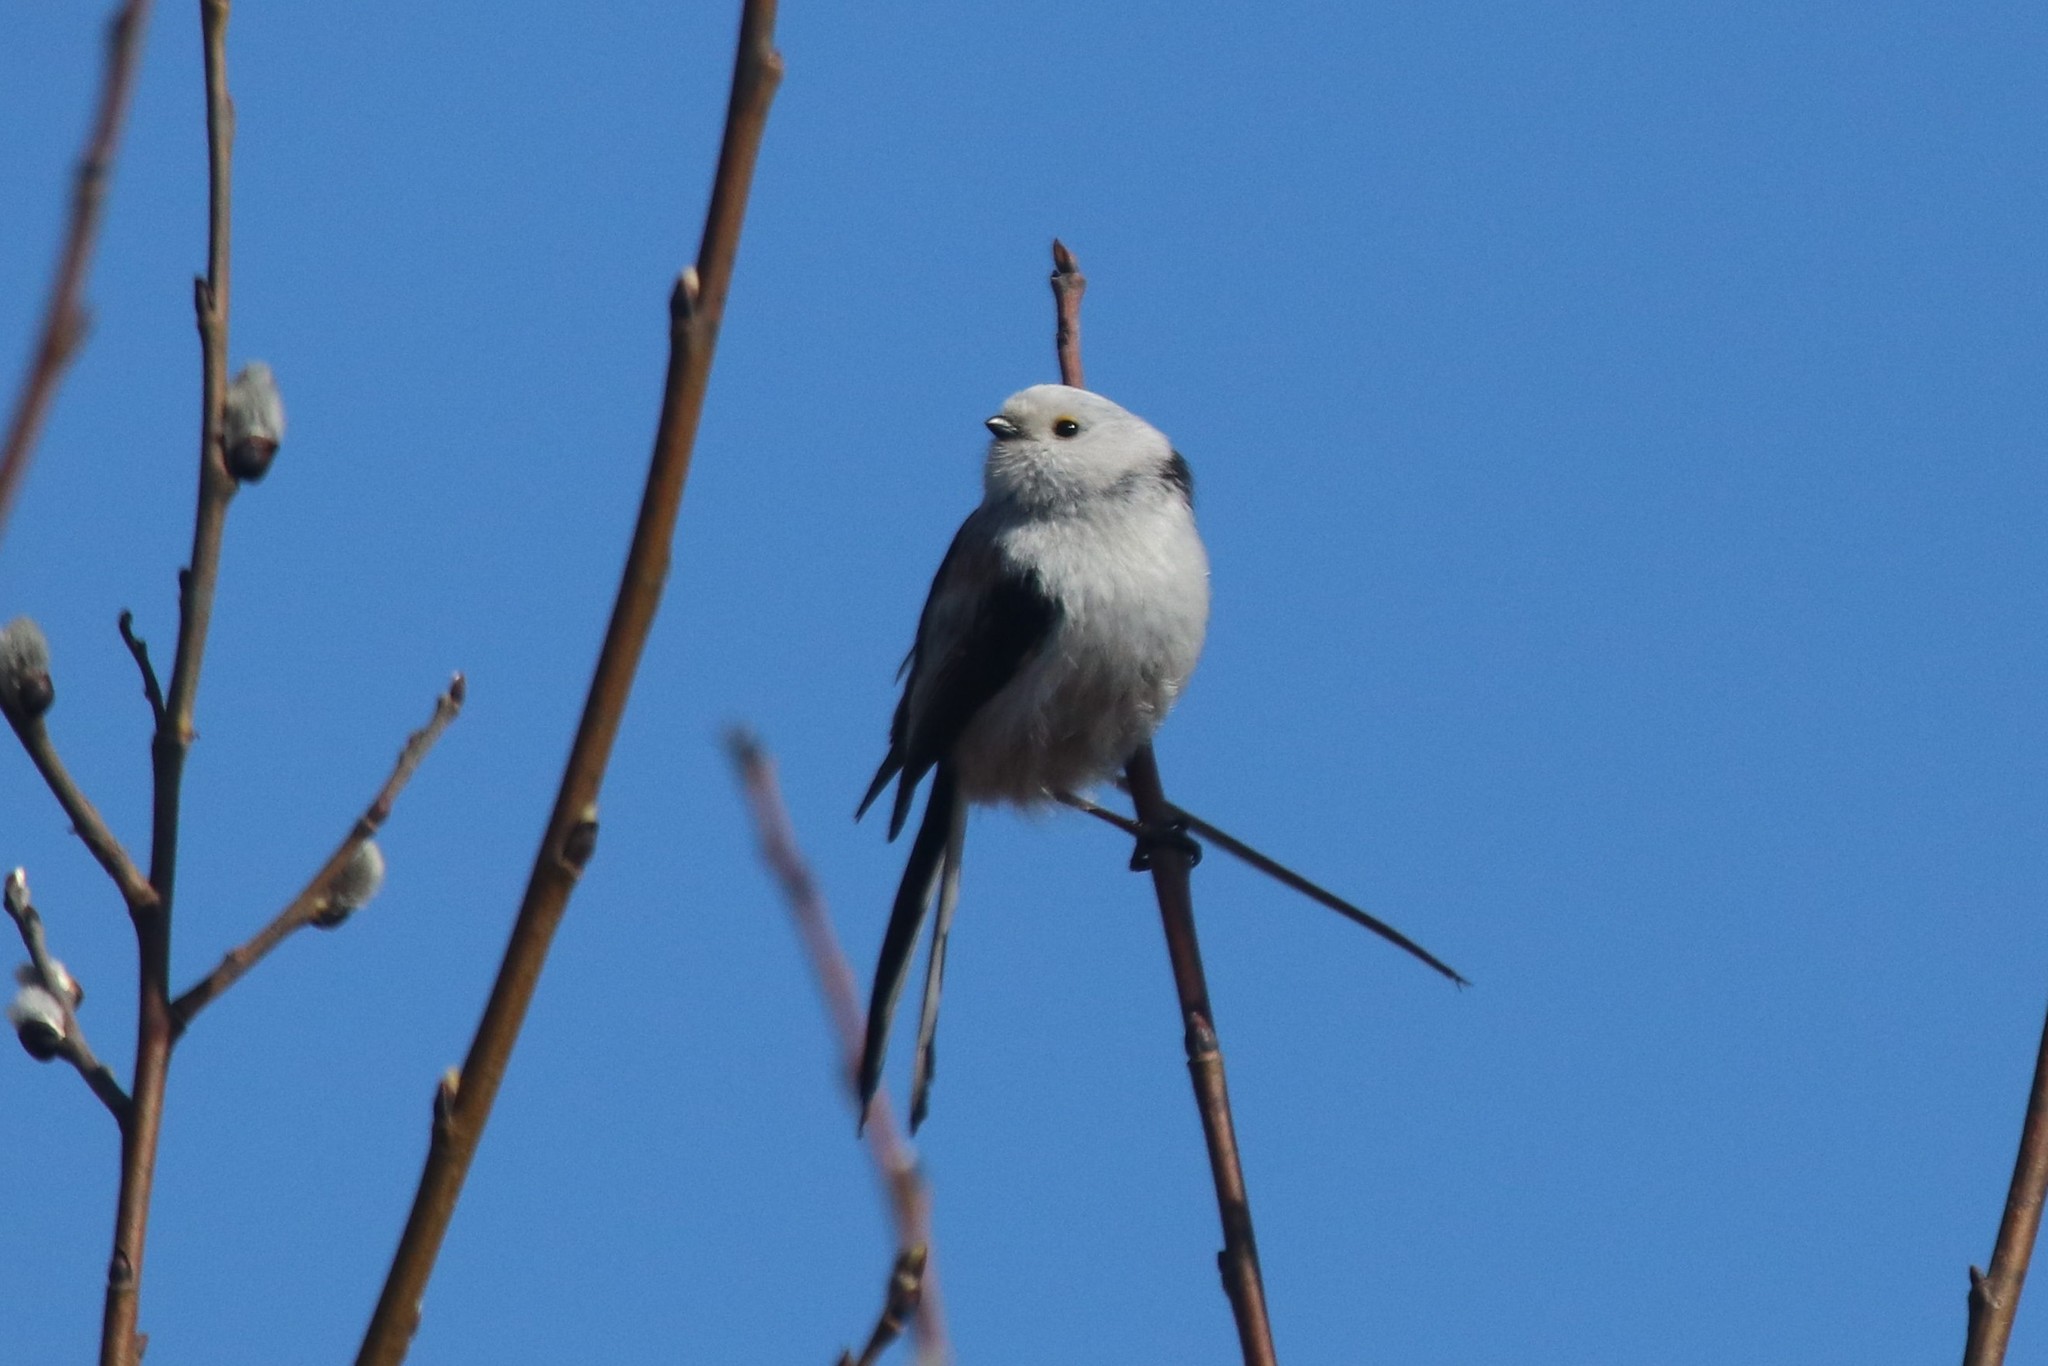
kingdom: Animalia
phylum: Chordata
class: Aves
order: Passeriformes
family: Aegithalidae
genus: Aegithalos
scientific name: Aegithalos caudatus
